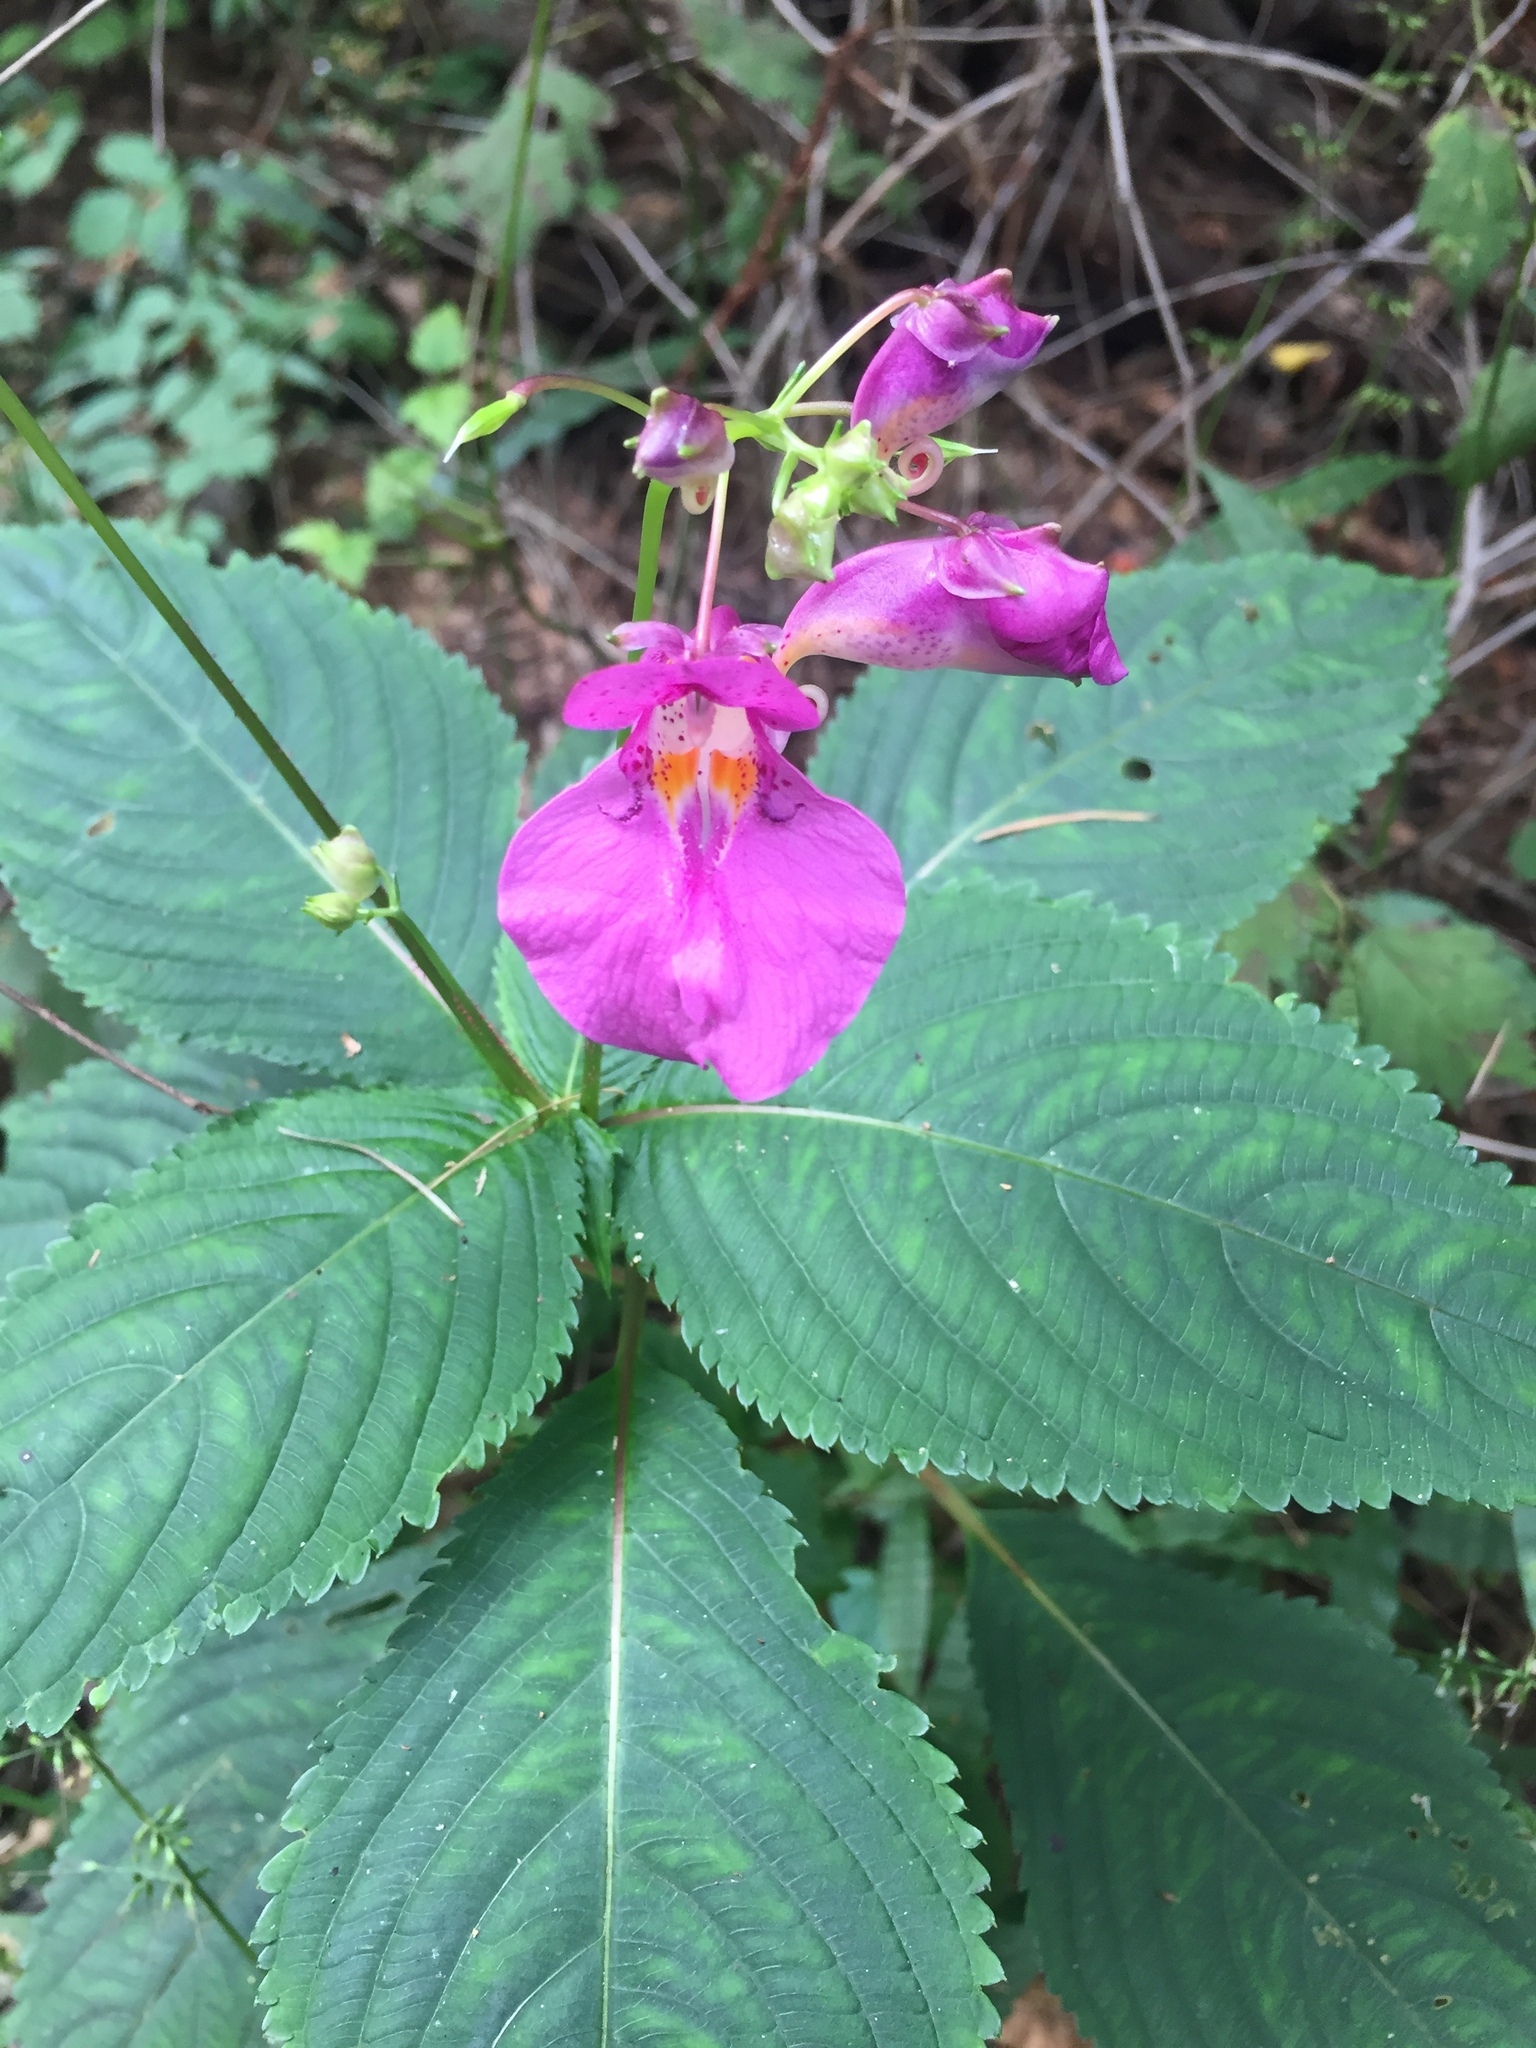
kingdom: Plantae
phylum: Tracheophyta
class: Magnoliopsida
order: Ericales
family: Balsaminaceae
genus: Impatiens
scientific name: Impatiens textorii
